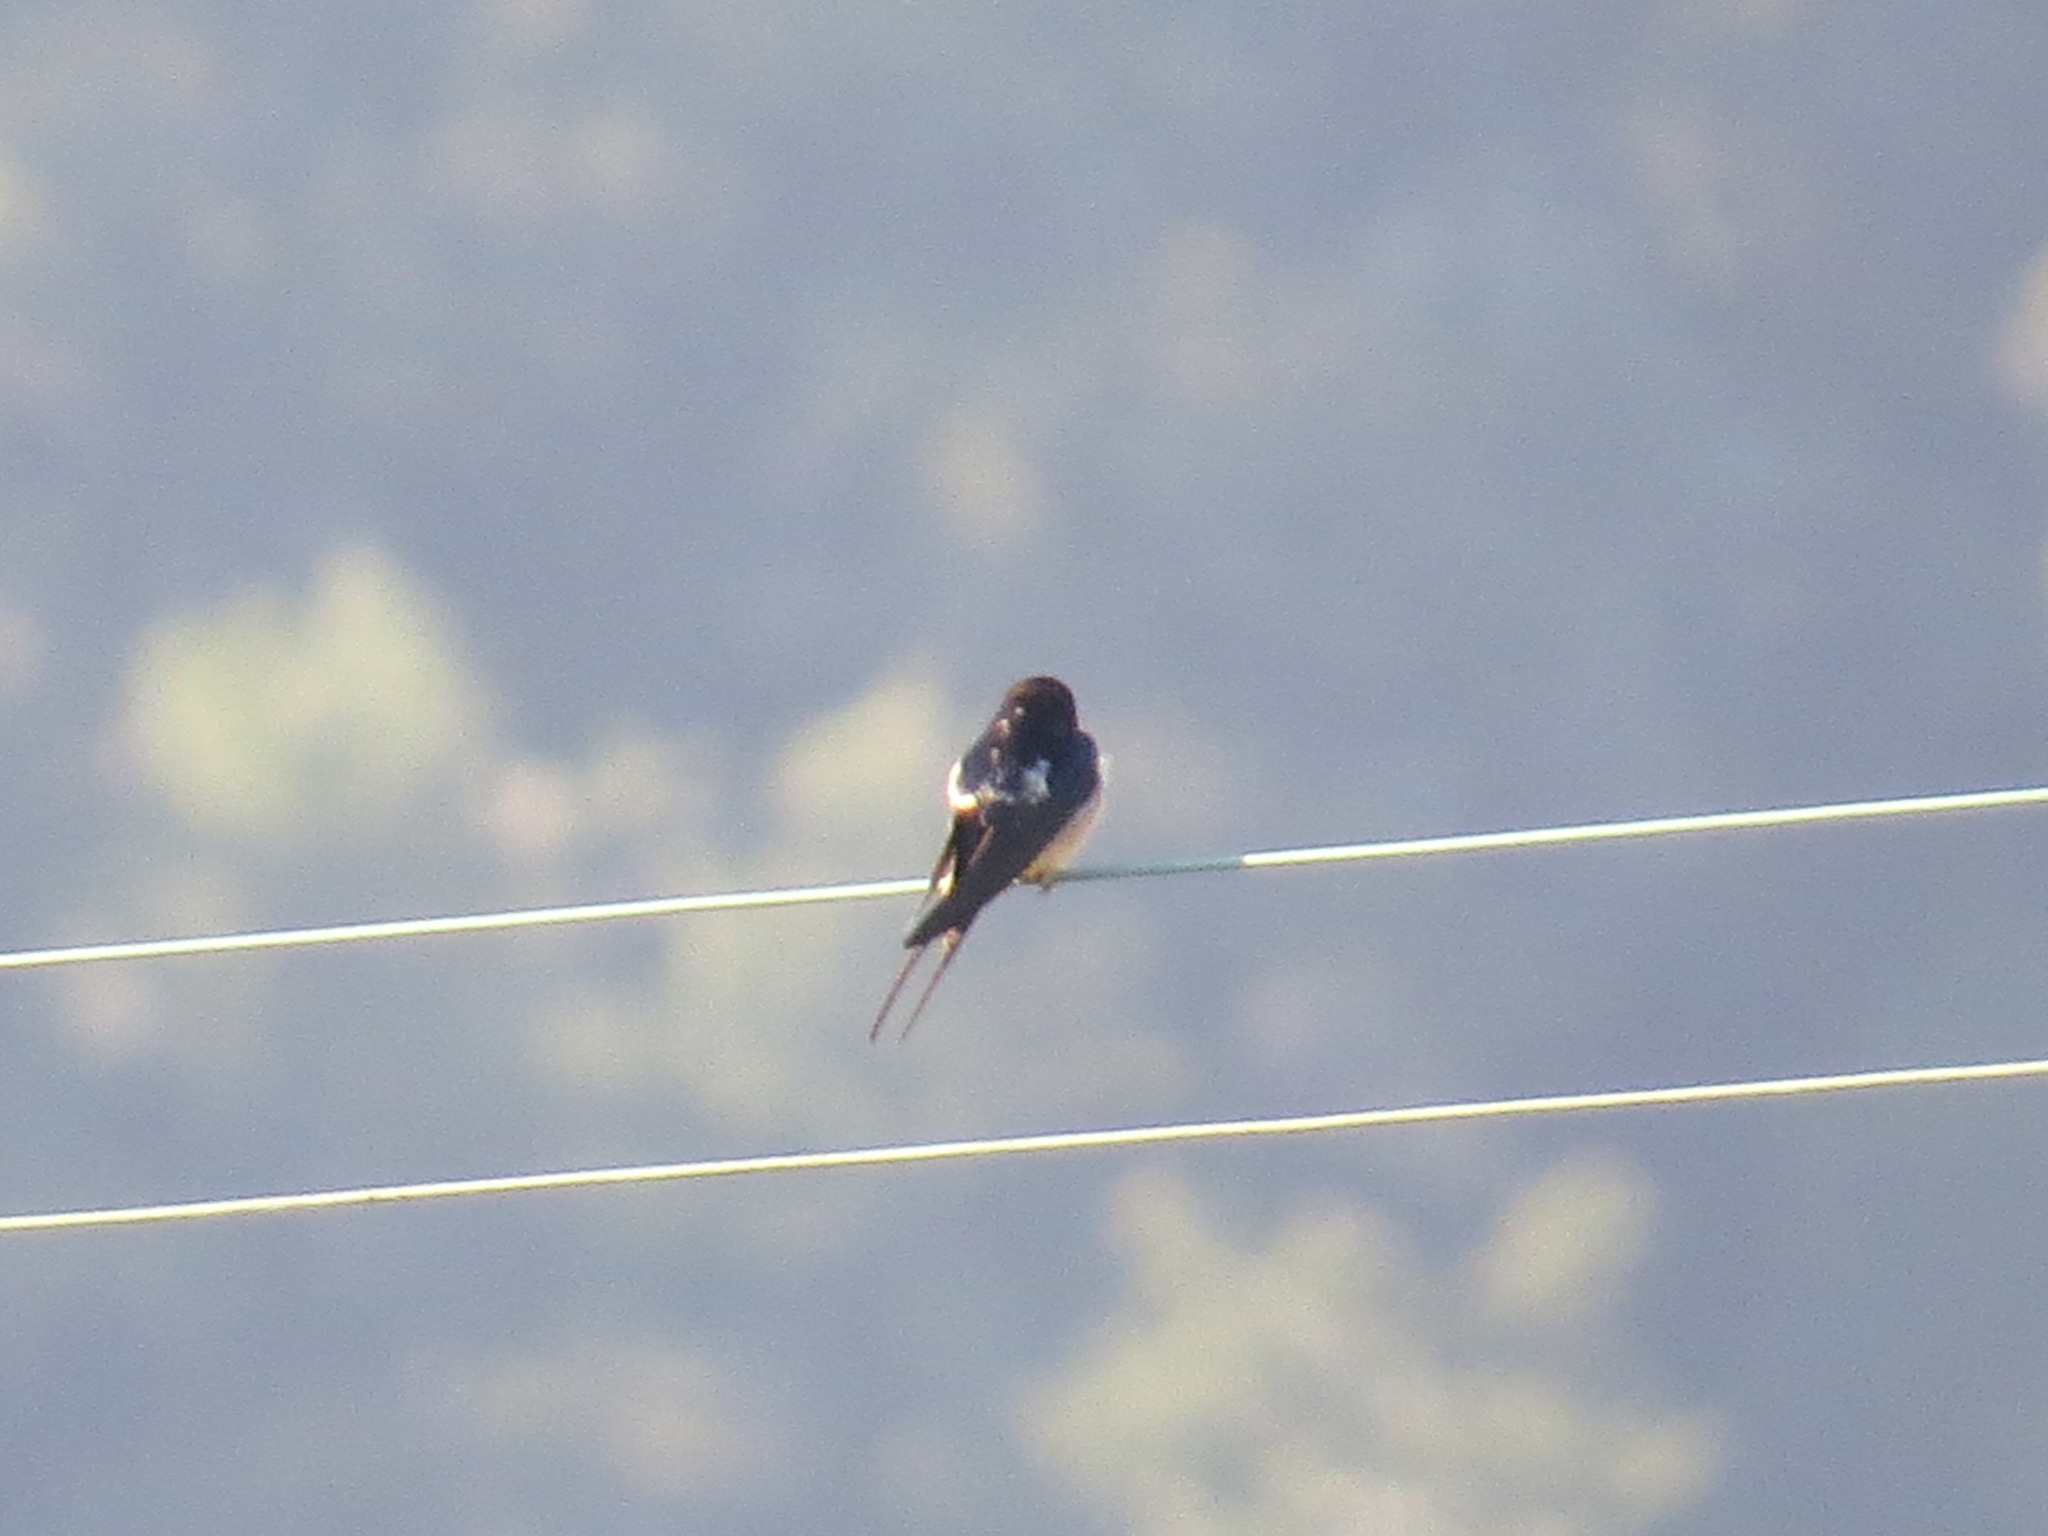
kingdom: Animalia
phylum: Chordata
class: Aves
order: Passeriformes
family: Hirundinidae
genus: Hirundo
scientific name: Hirundo rustica
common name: Barn swallow
